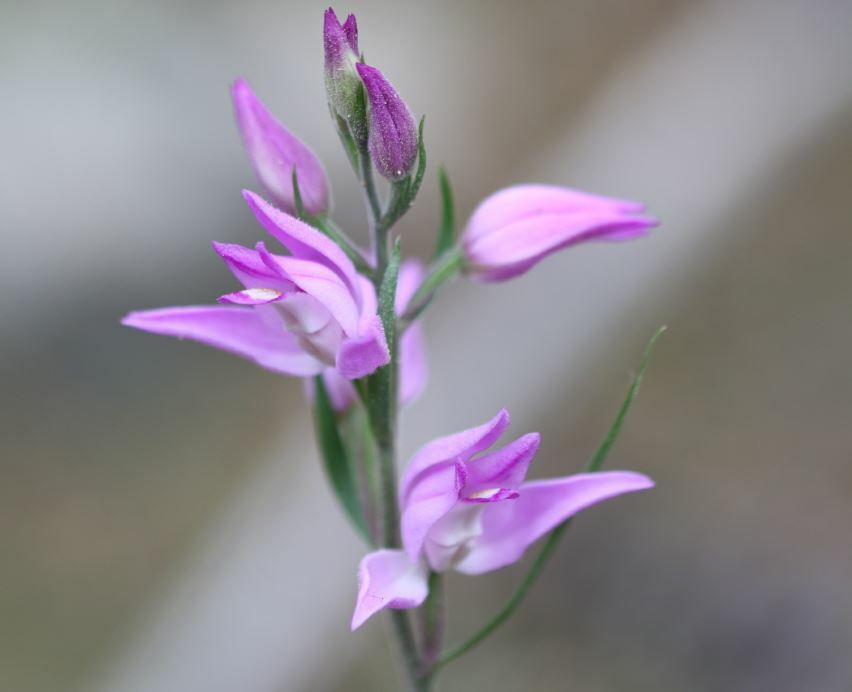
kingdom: Plantae
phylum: Tracheophyta
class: Liliopsida
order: Asparagales
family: Orchidaceae
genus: Cephalanthera
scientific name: Cephalanthera rubra
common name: Red helleborine
